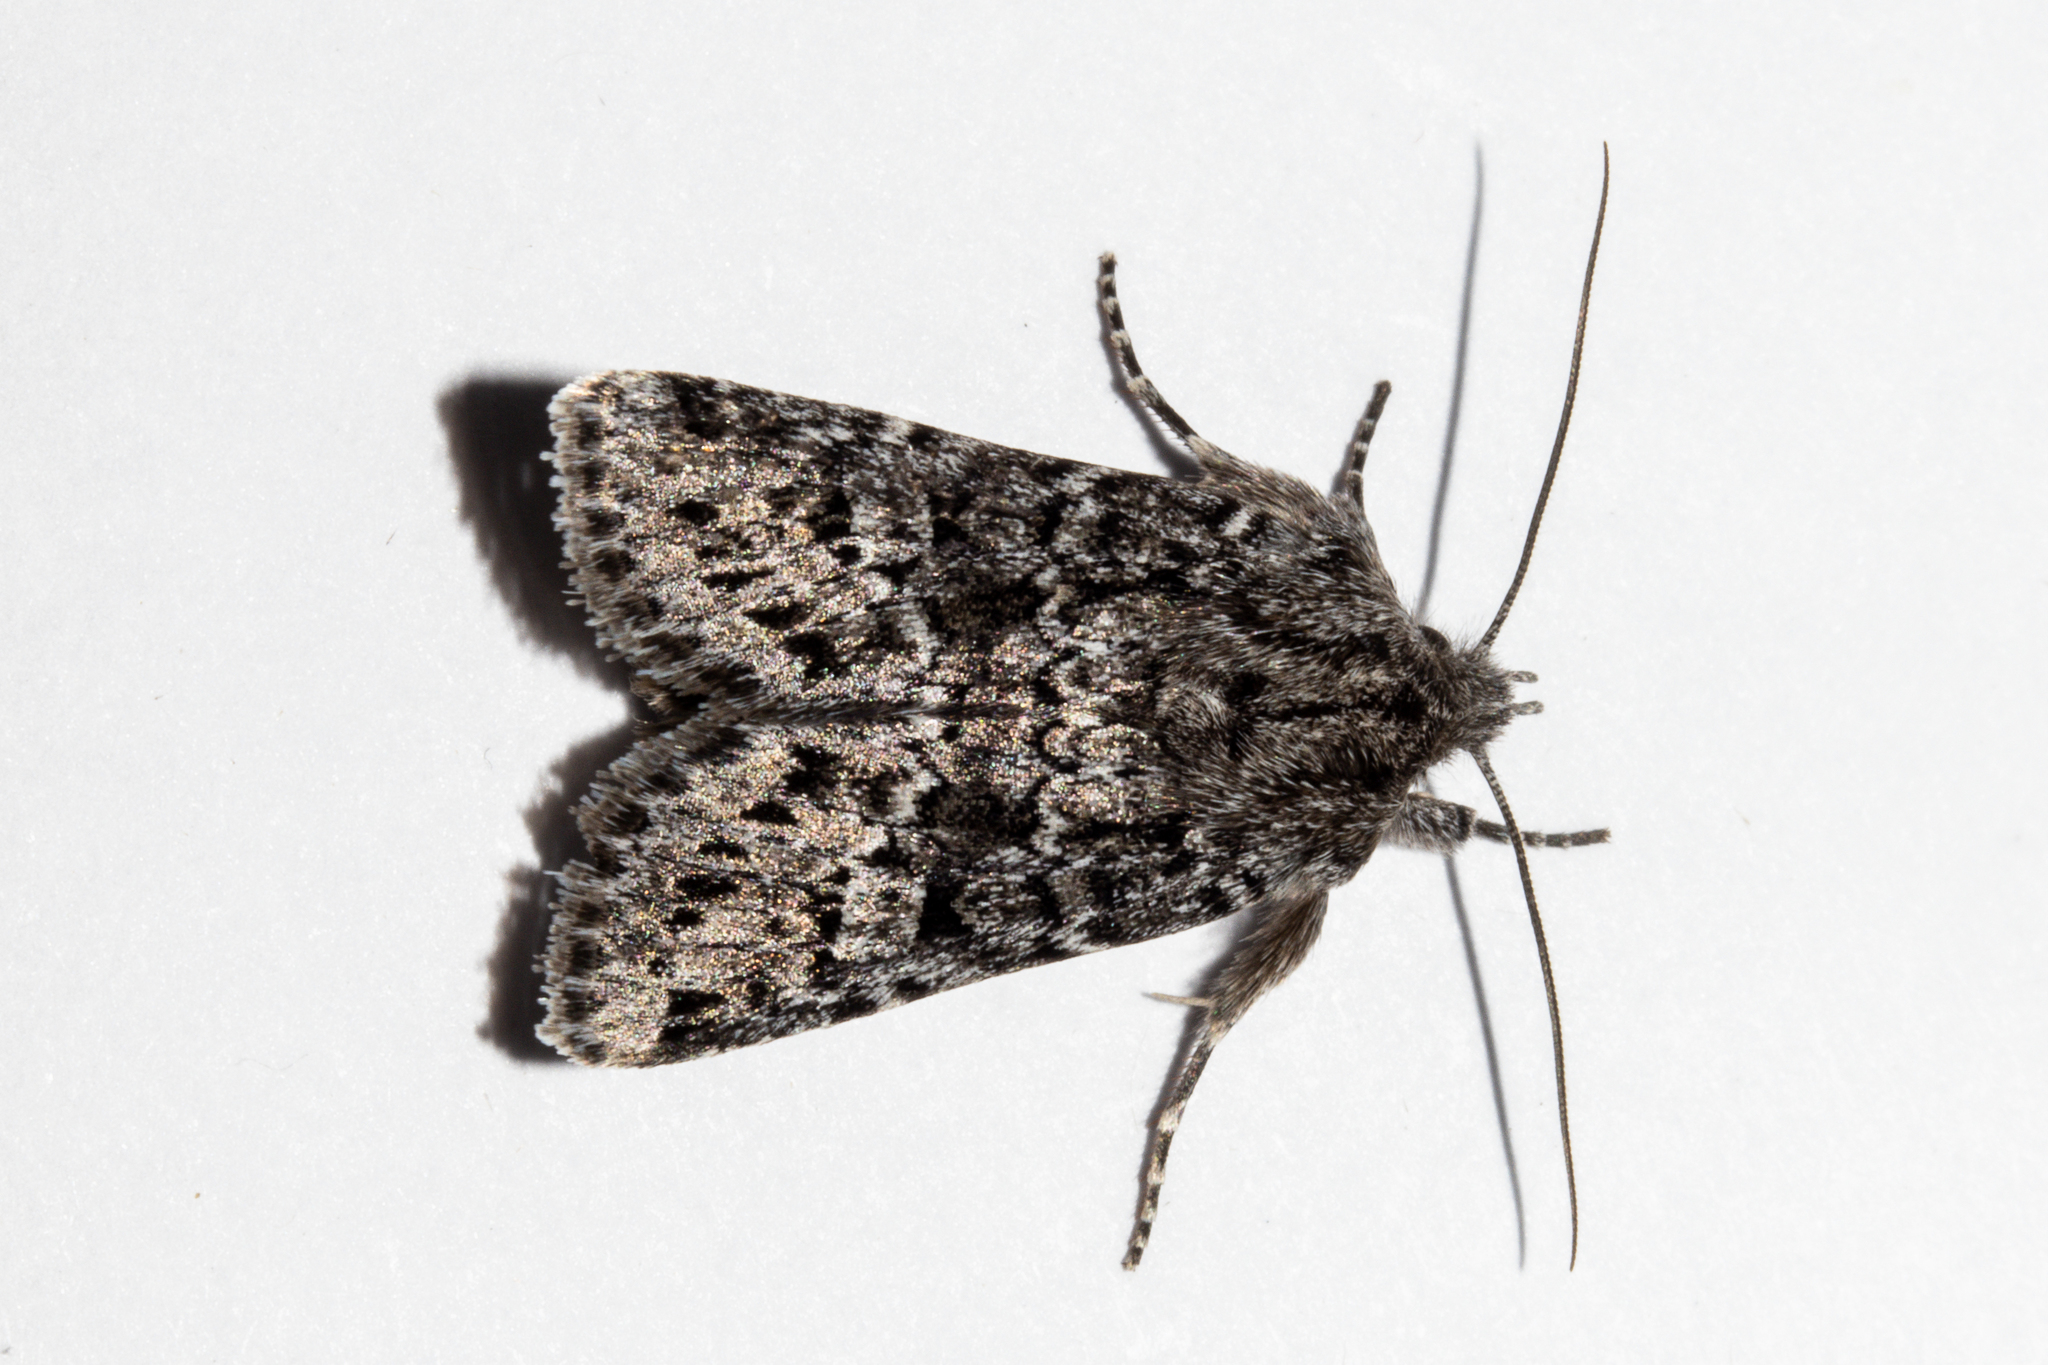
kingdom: Animalia
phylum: Arthropoda
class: Insecta
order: Lepidoptera
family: Noctuidae
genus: Physetica
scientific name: Physetica cucullina
